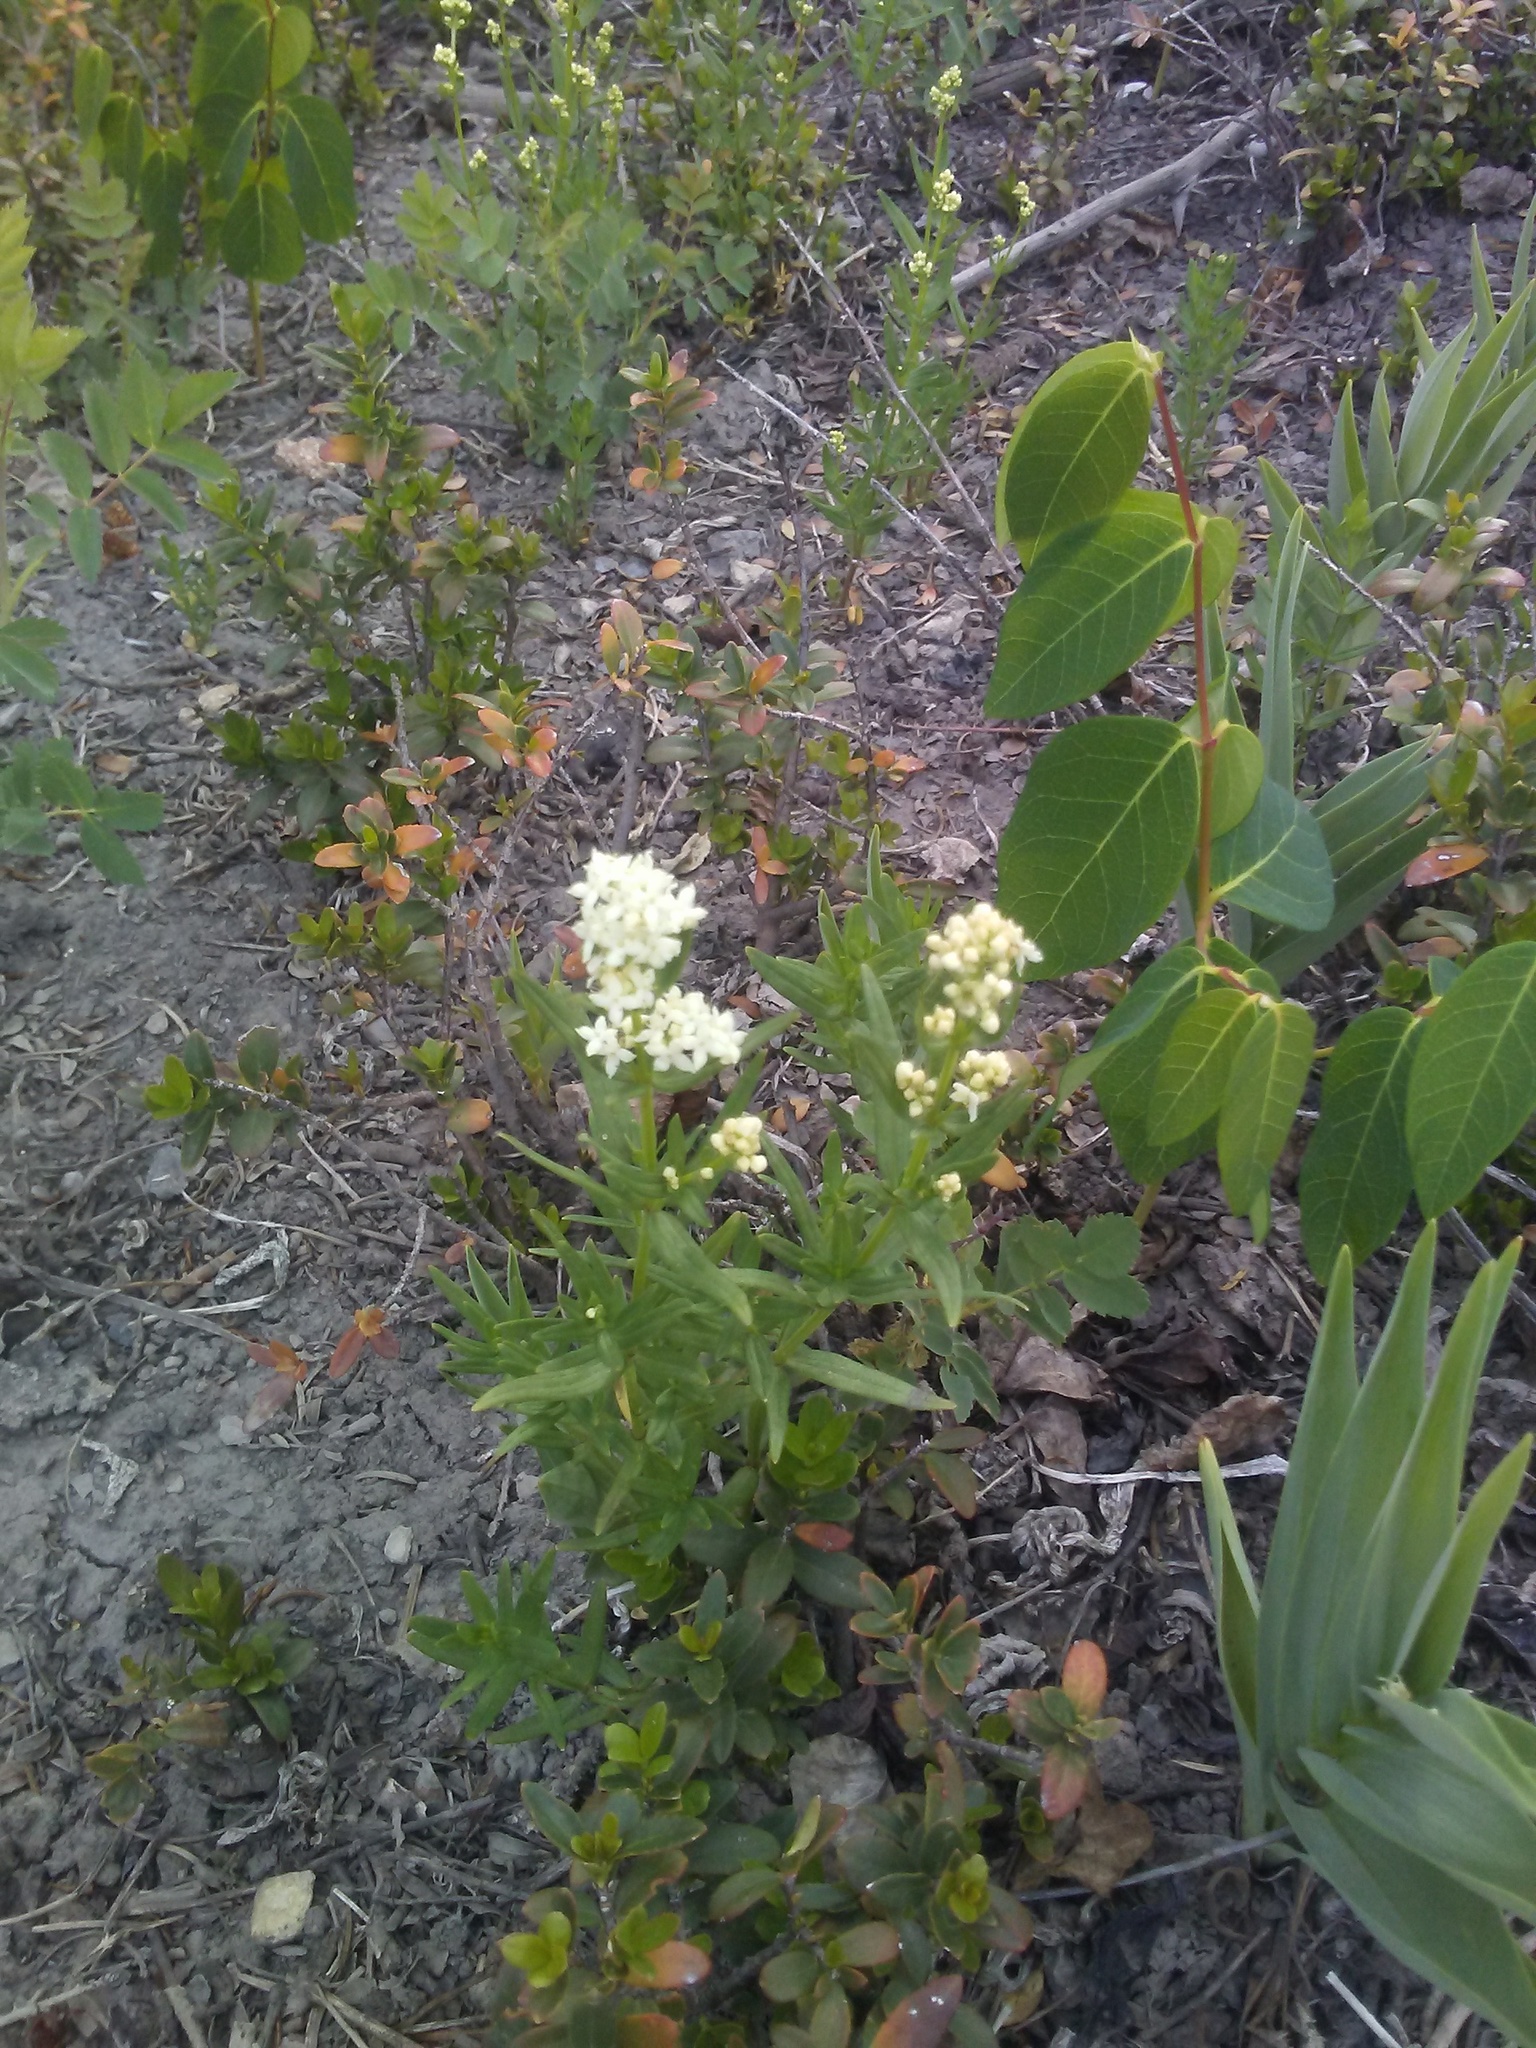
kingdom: Plantae
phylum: Tracheophyta
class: Magnoliopsida
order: Gentianales
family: Rubiaceae
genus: Galium
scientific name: Galium boreale
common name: Northern bedstraw
